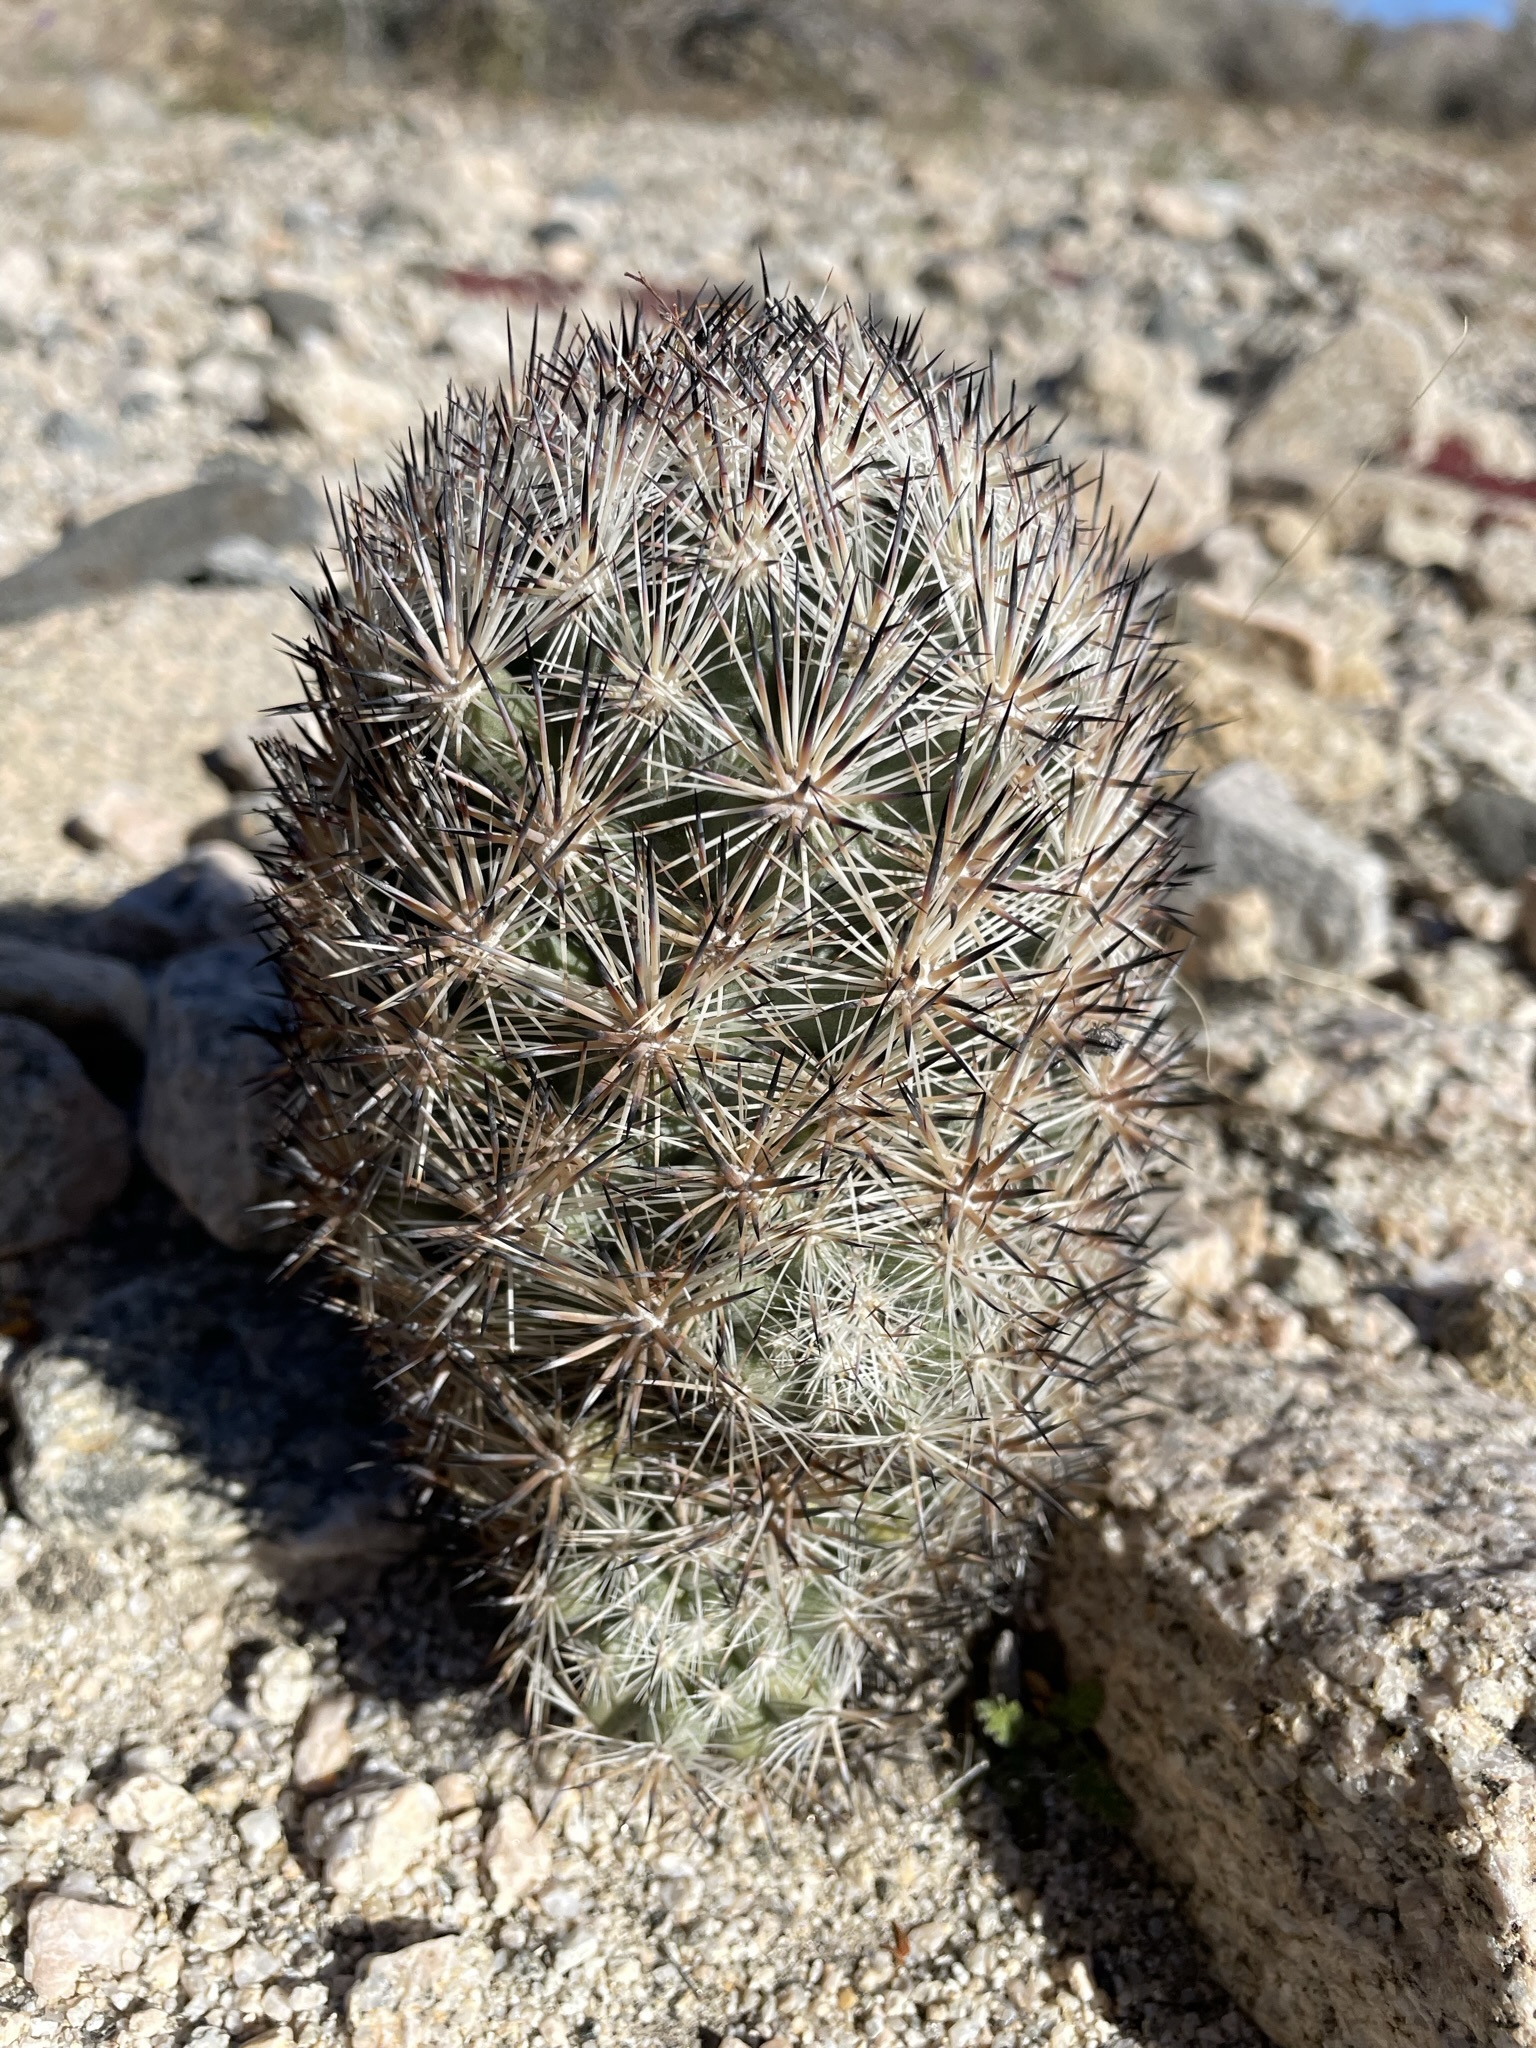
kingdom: Plantae
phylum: Tracheophyta
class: Magnoliopsida
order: Caryophyllales
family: Cactaceae
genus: Pelecyphora
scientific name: Pelecyphora alversonii
